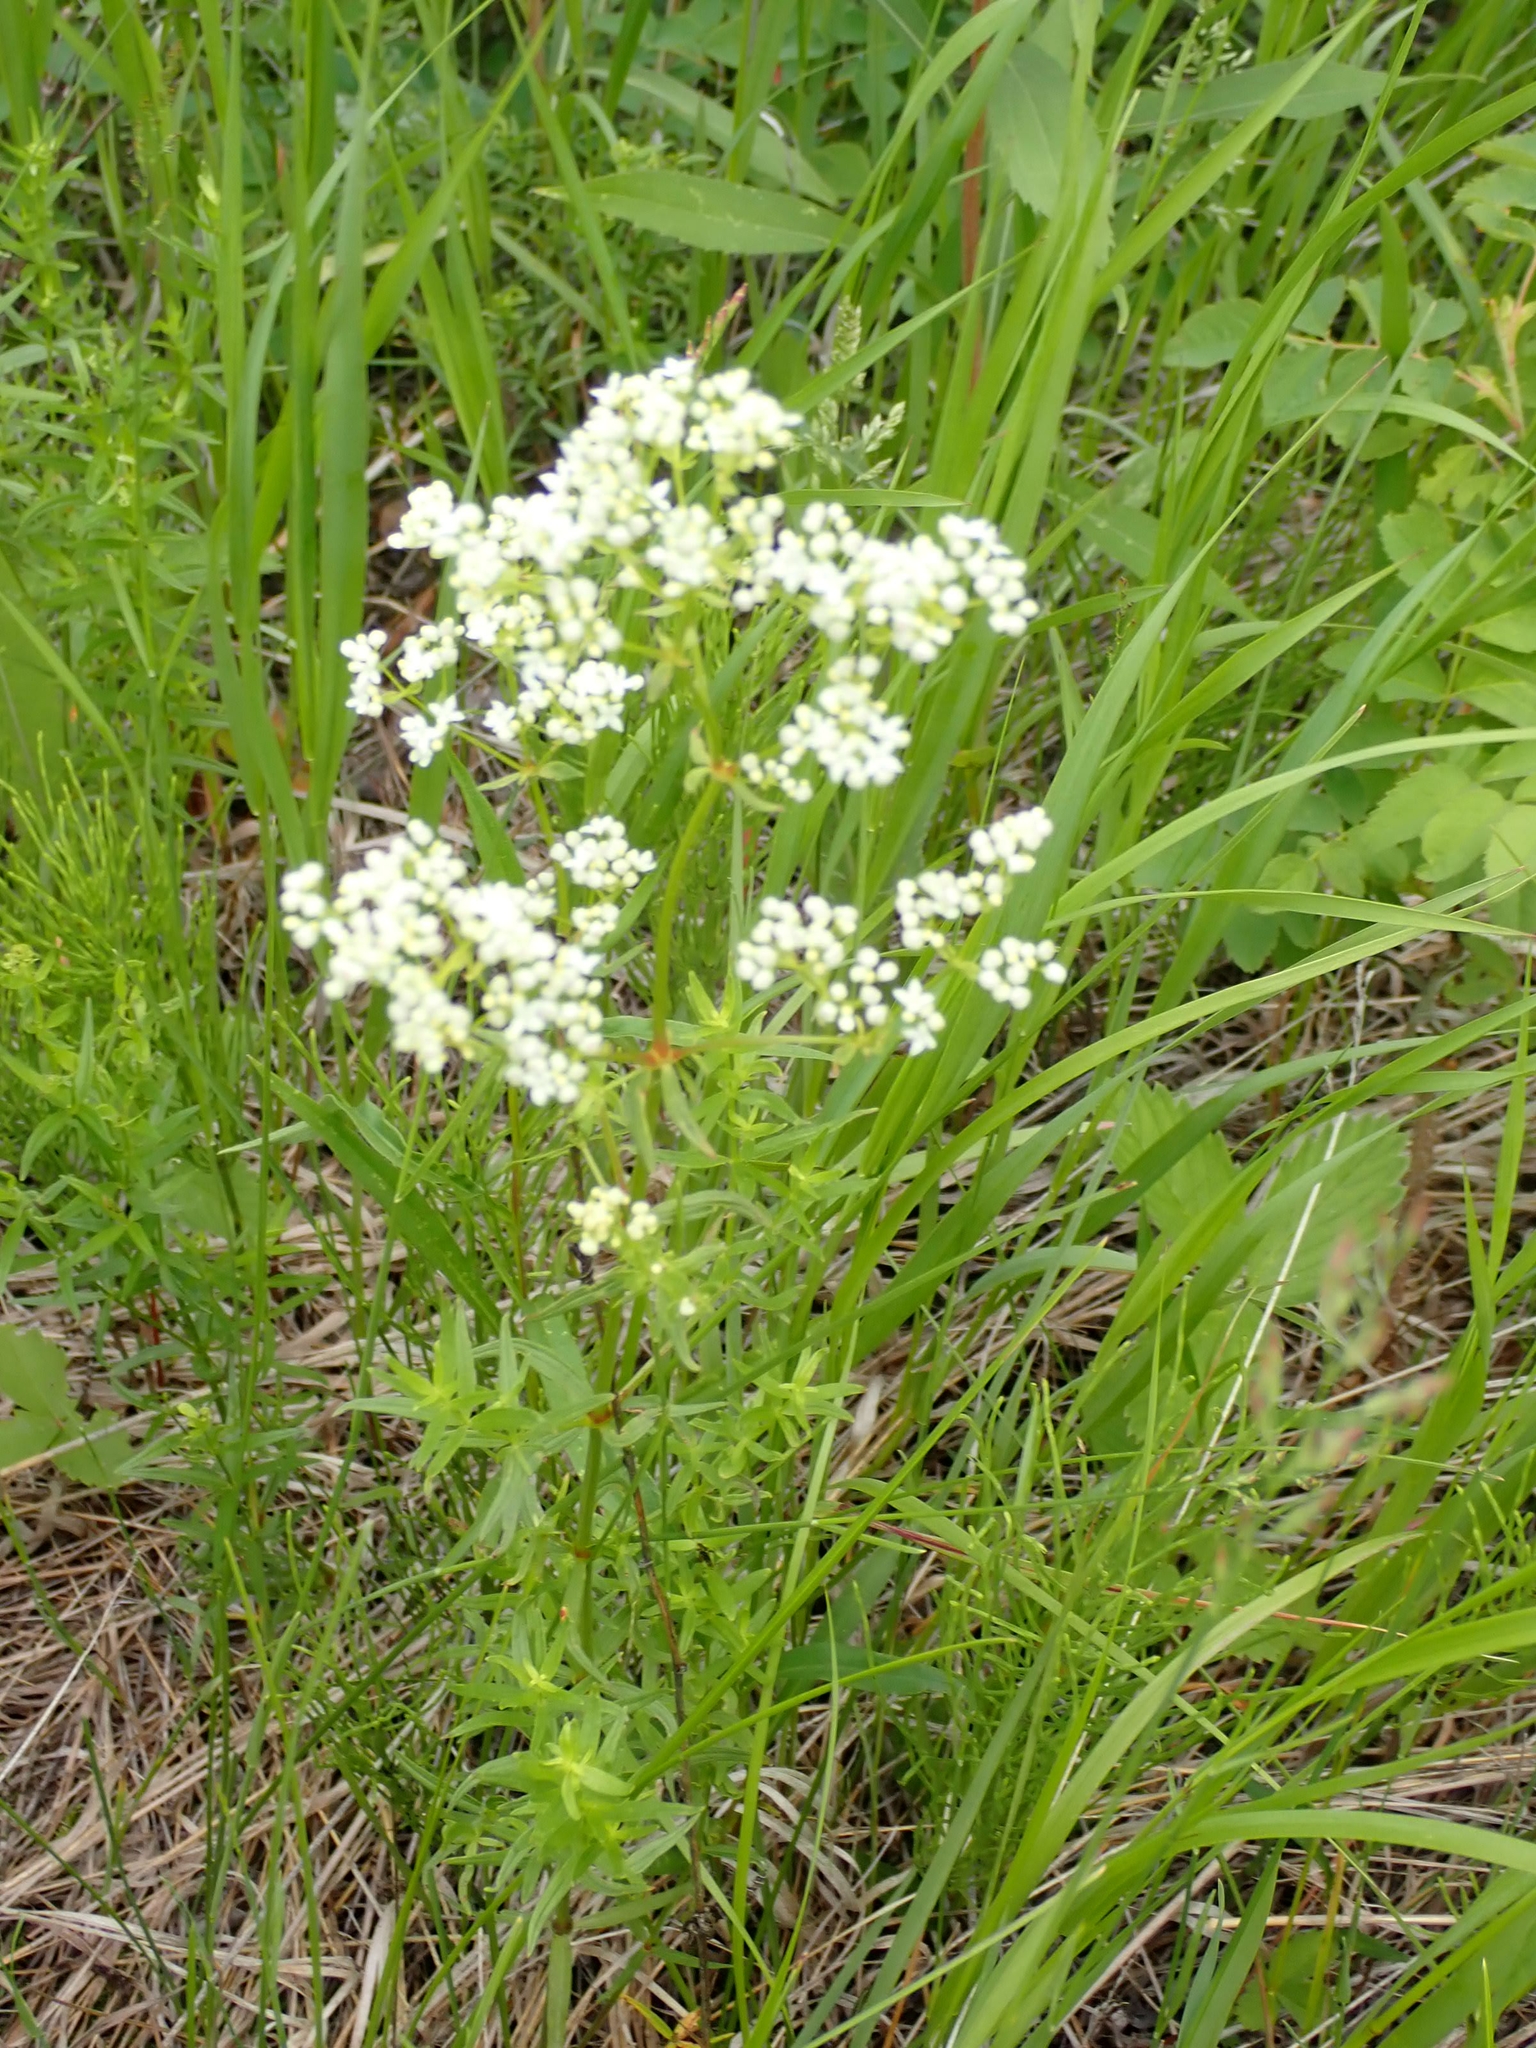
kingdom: Plantae
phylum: Tracheophyta
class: Magnoliopsida
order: Gentianales
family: Rubiaceae
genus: Galium
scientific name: Galium boreale
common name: Northern bedstraw
